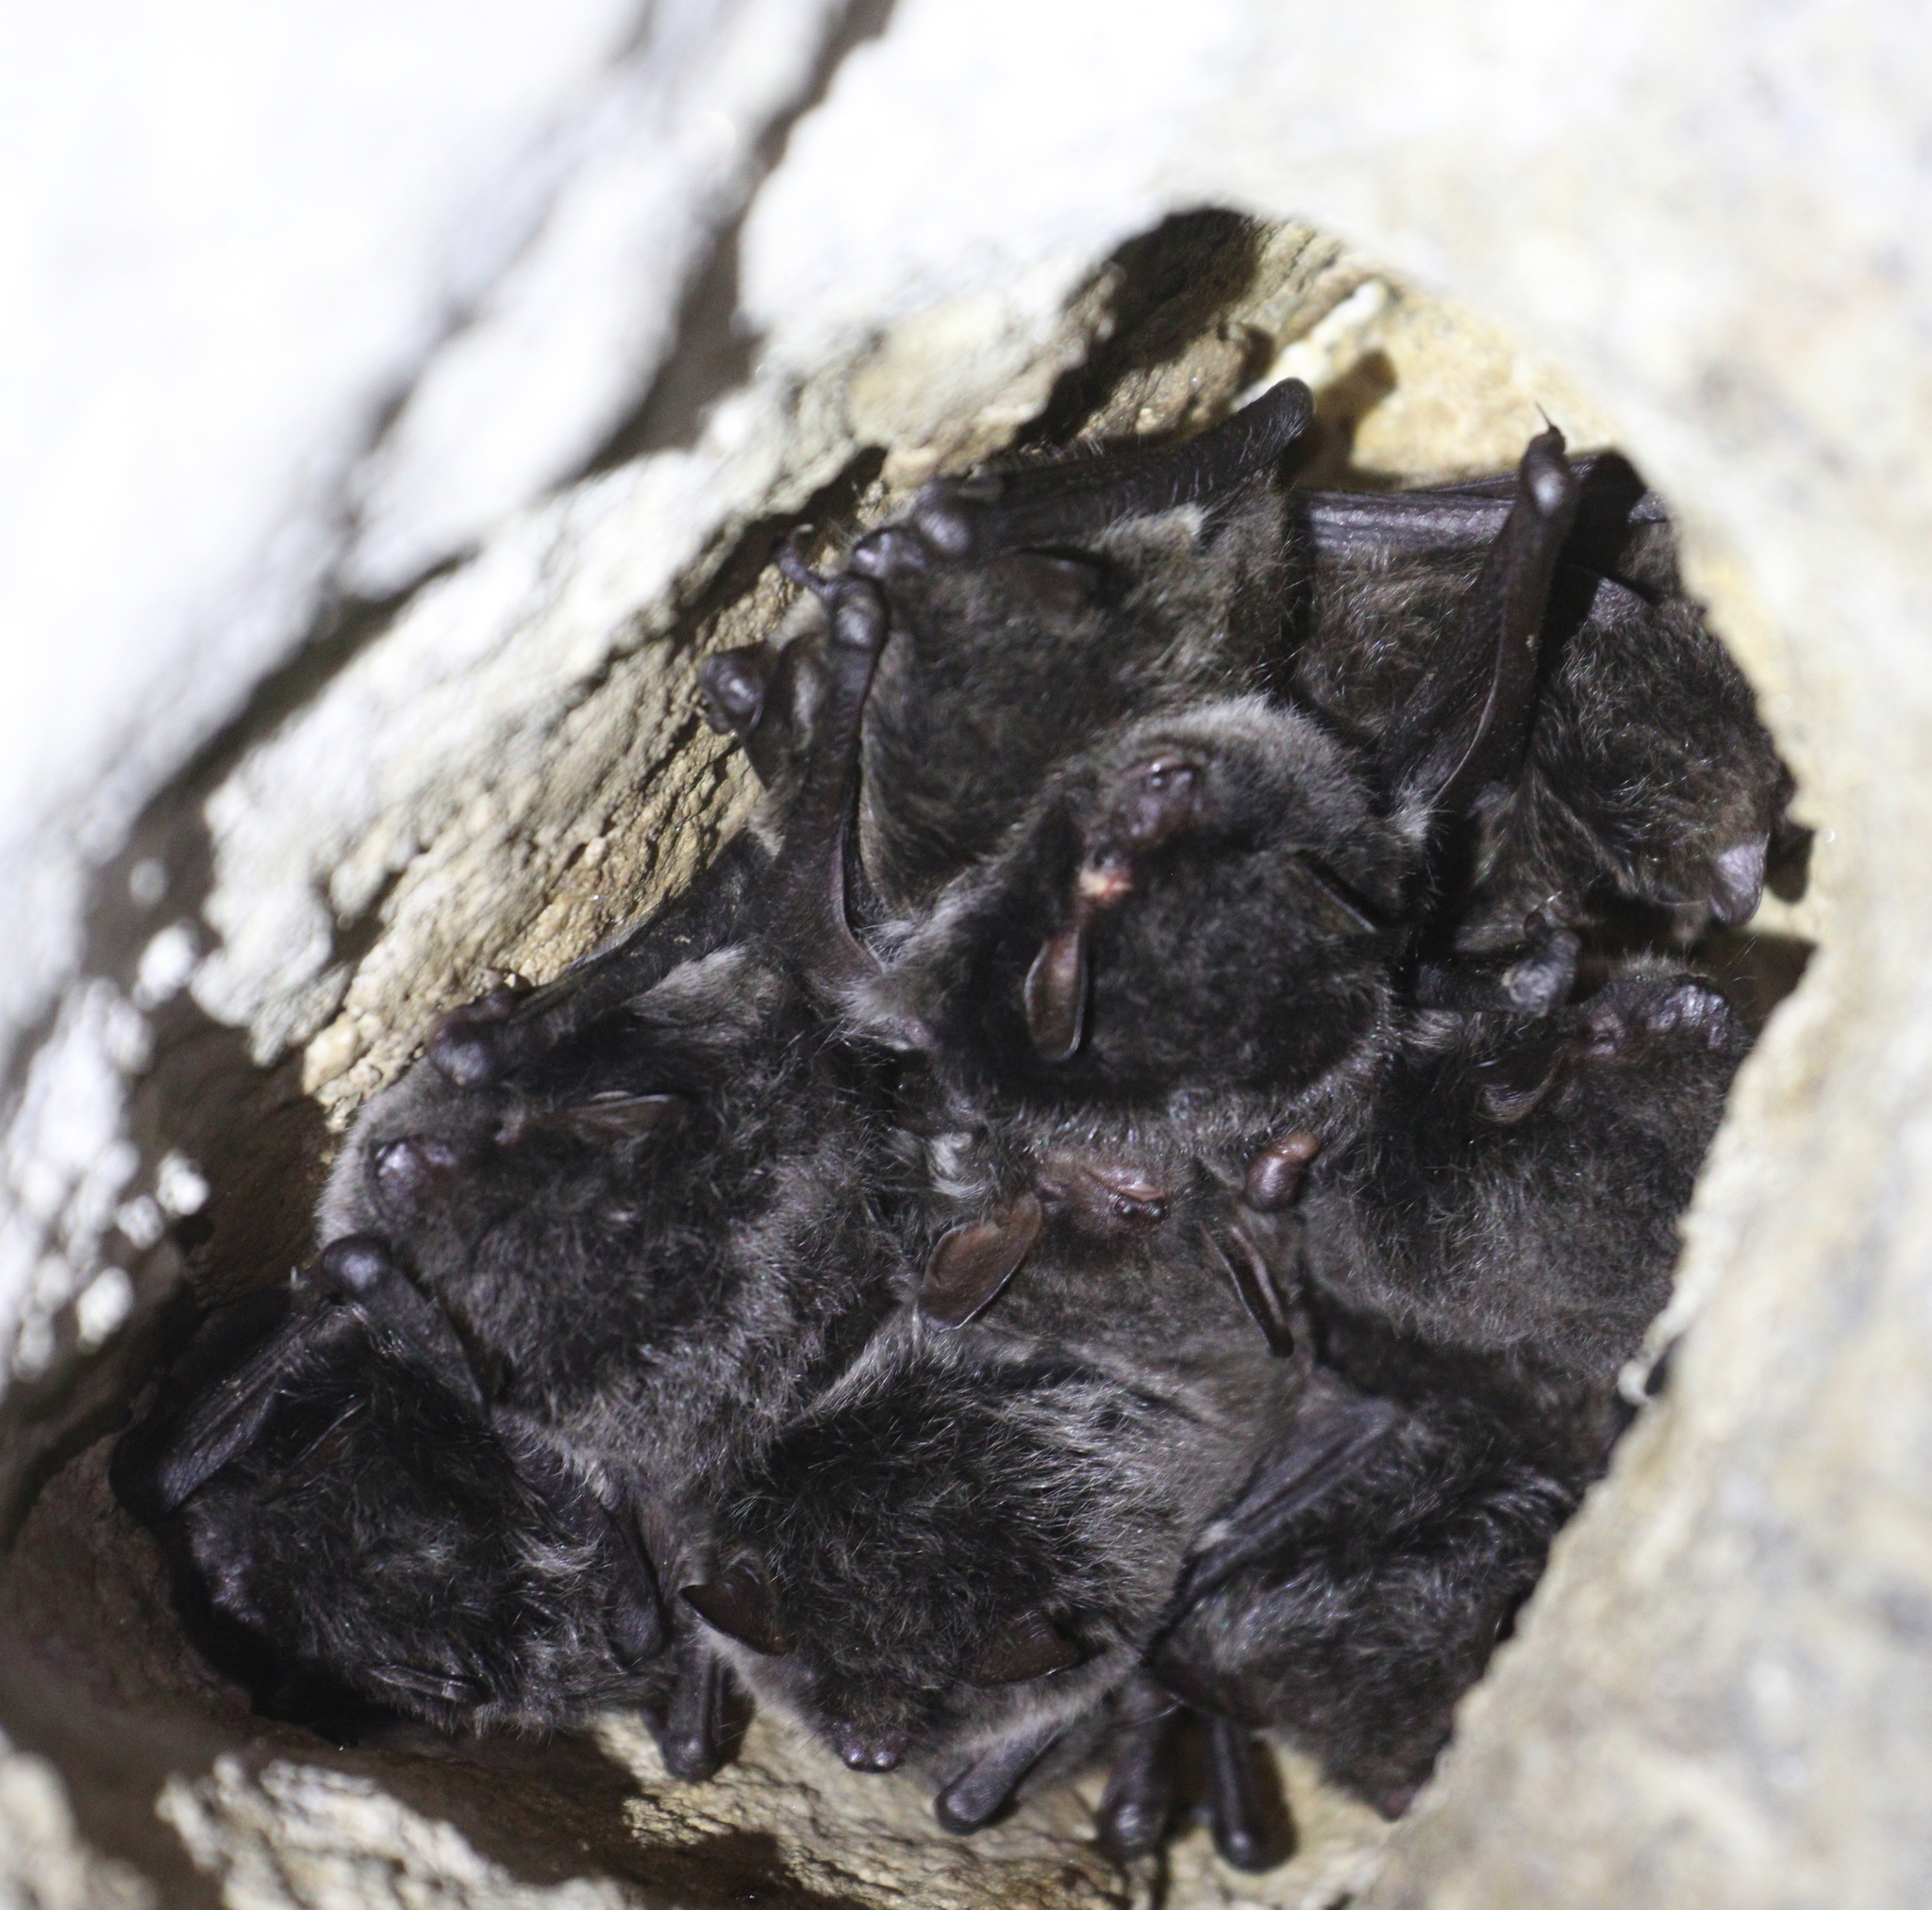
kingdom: Animalia
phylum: Chordata
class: Mammalia
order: Chiroptera
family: Vespertilionidae
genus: Myotis
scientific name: Myotis daubentonii
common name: Daubenton's myotis
